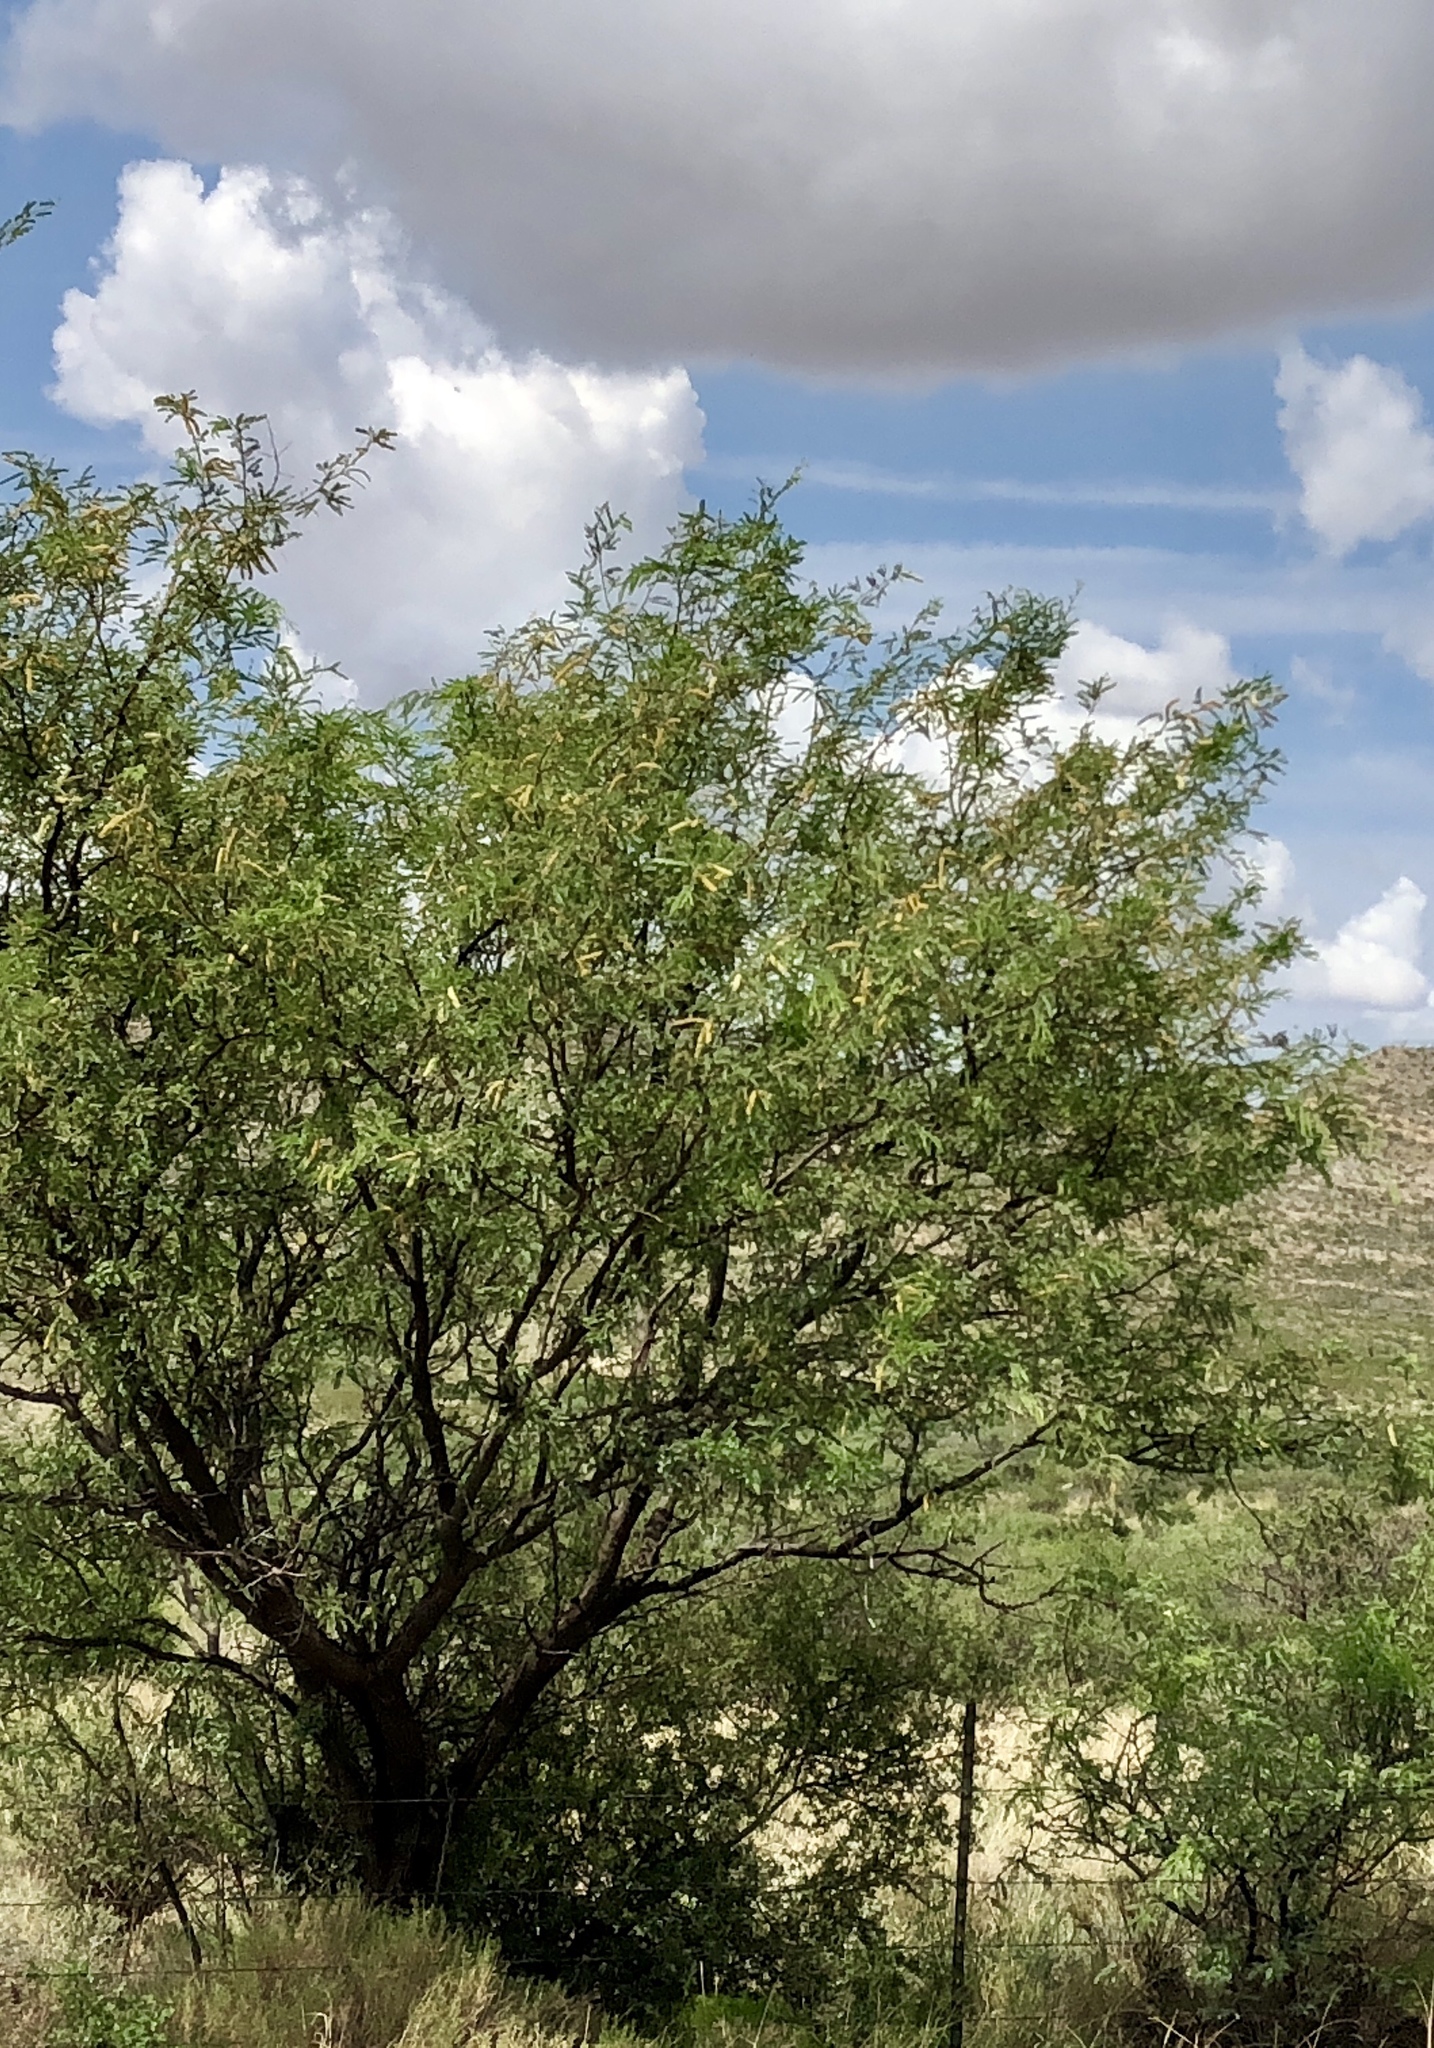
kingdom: Plantae
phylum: Tracheophyta
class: Magnoliopsida
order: Fabales
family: Fabaceae
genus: Prosopis
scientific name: Prosopis velutina
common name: Velvet mesquite
